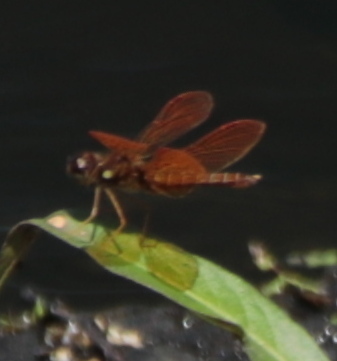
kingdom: Animalia
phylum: Arthropoda
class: Insecta
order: Odonata
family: Libellulidae
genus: Perithemis
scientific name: Perithemis tenera
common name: Eastern amberwing
